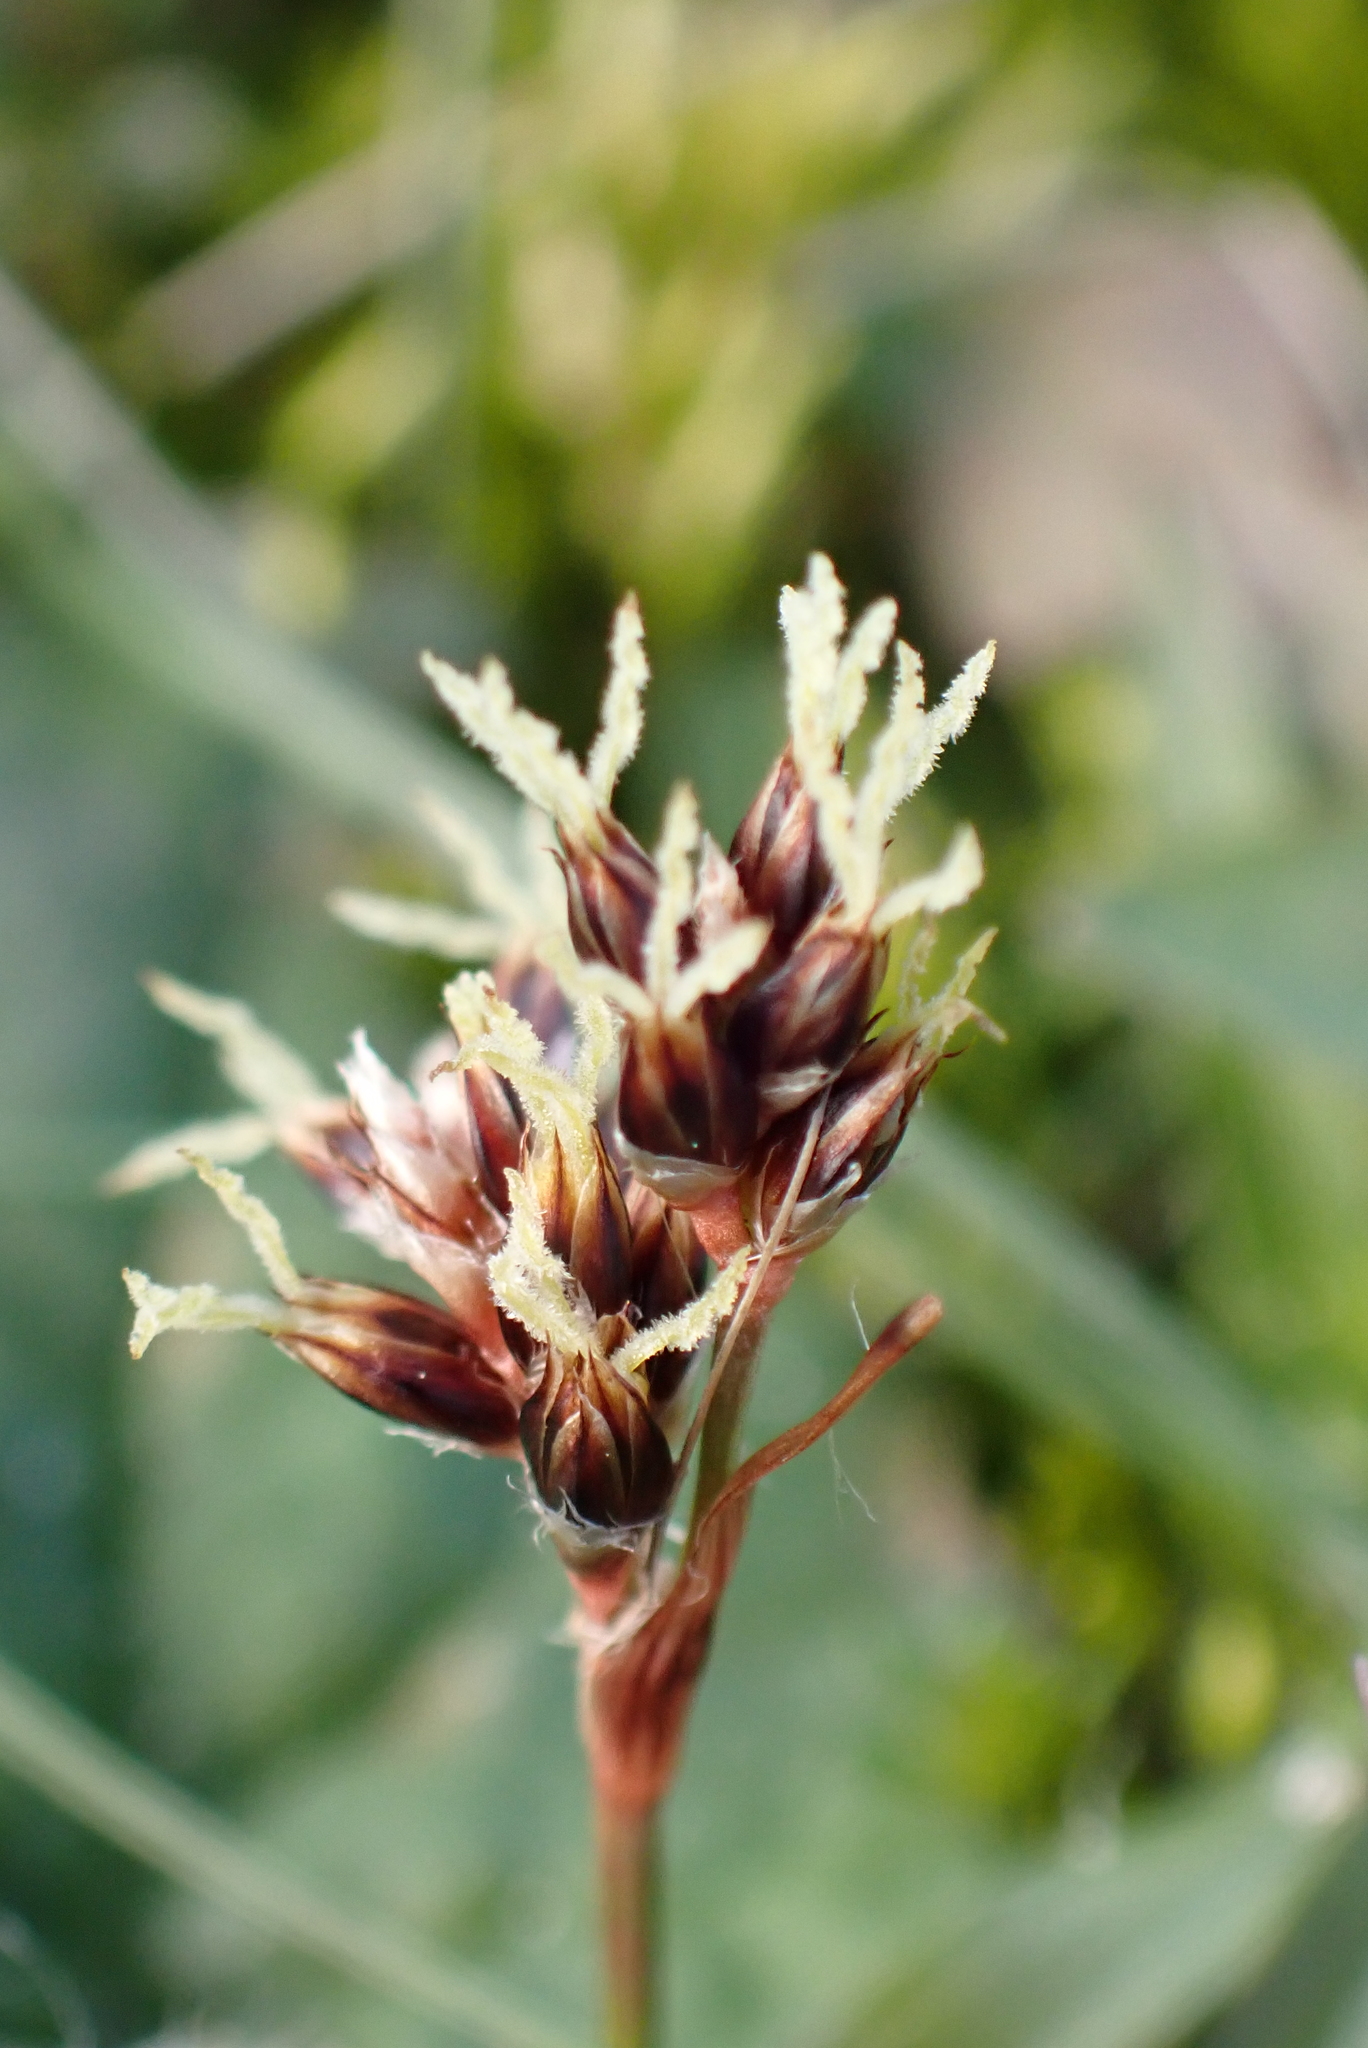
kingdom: Plantae
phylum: Tracheophyta
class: Liliopsida
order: Poales
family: Juncaceae
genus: Luzula
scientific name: Luzula campestris
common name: Field wood-rush
